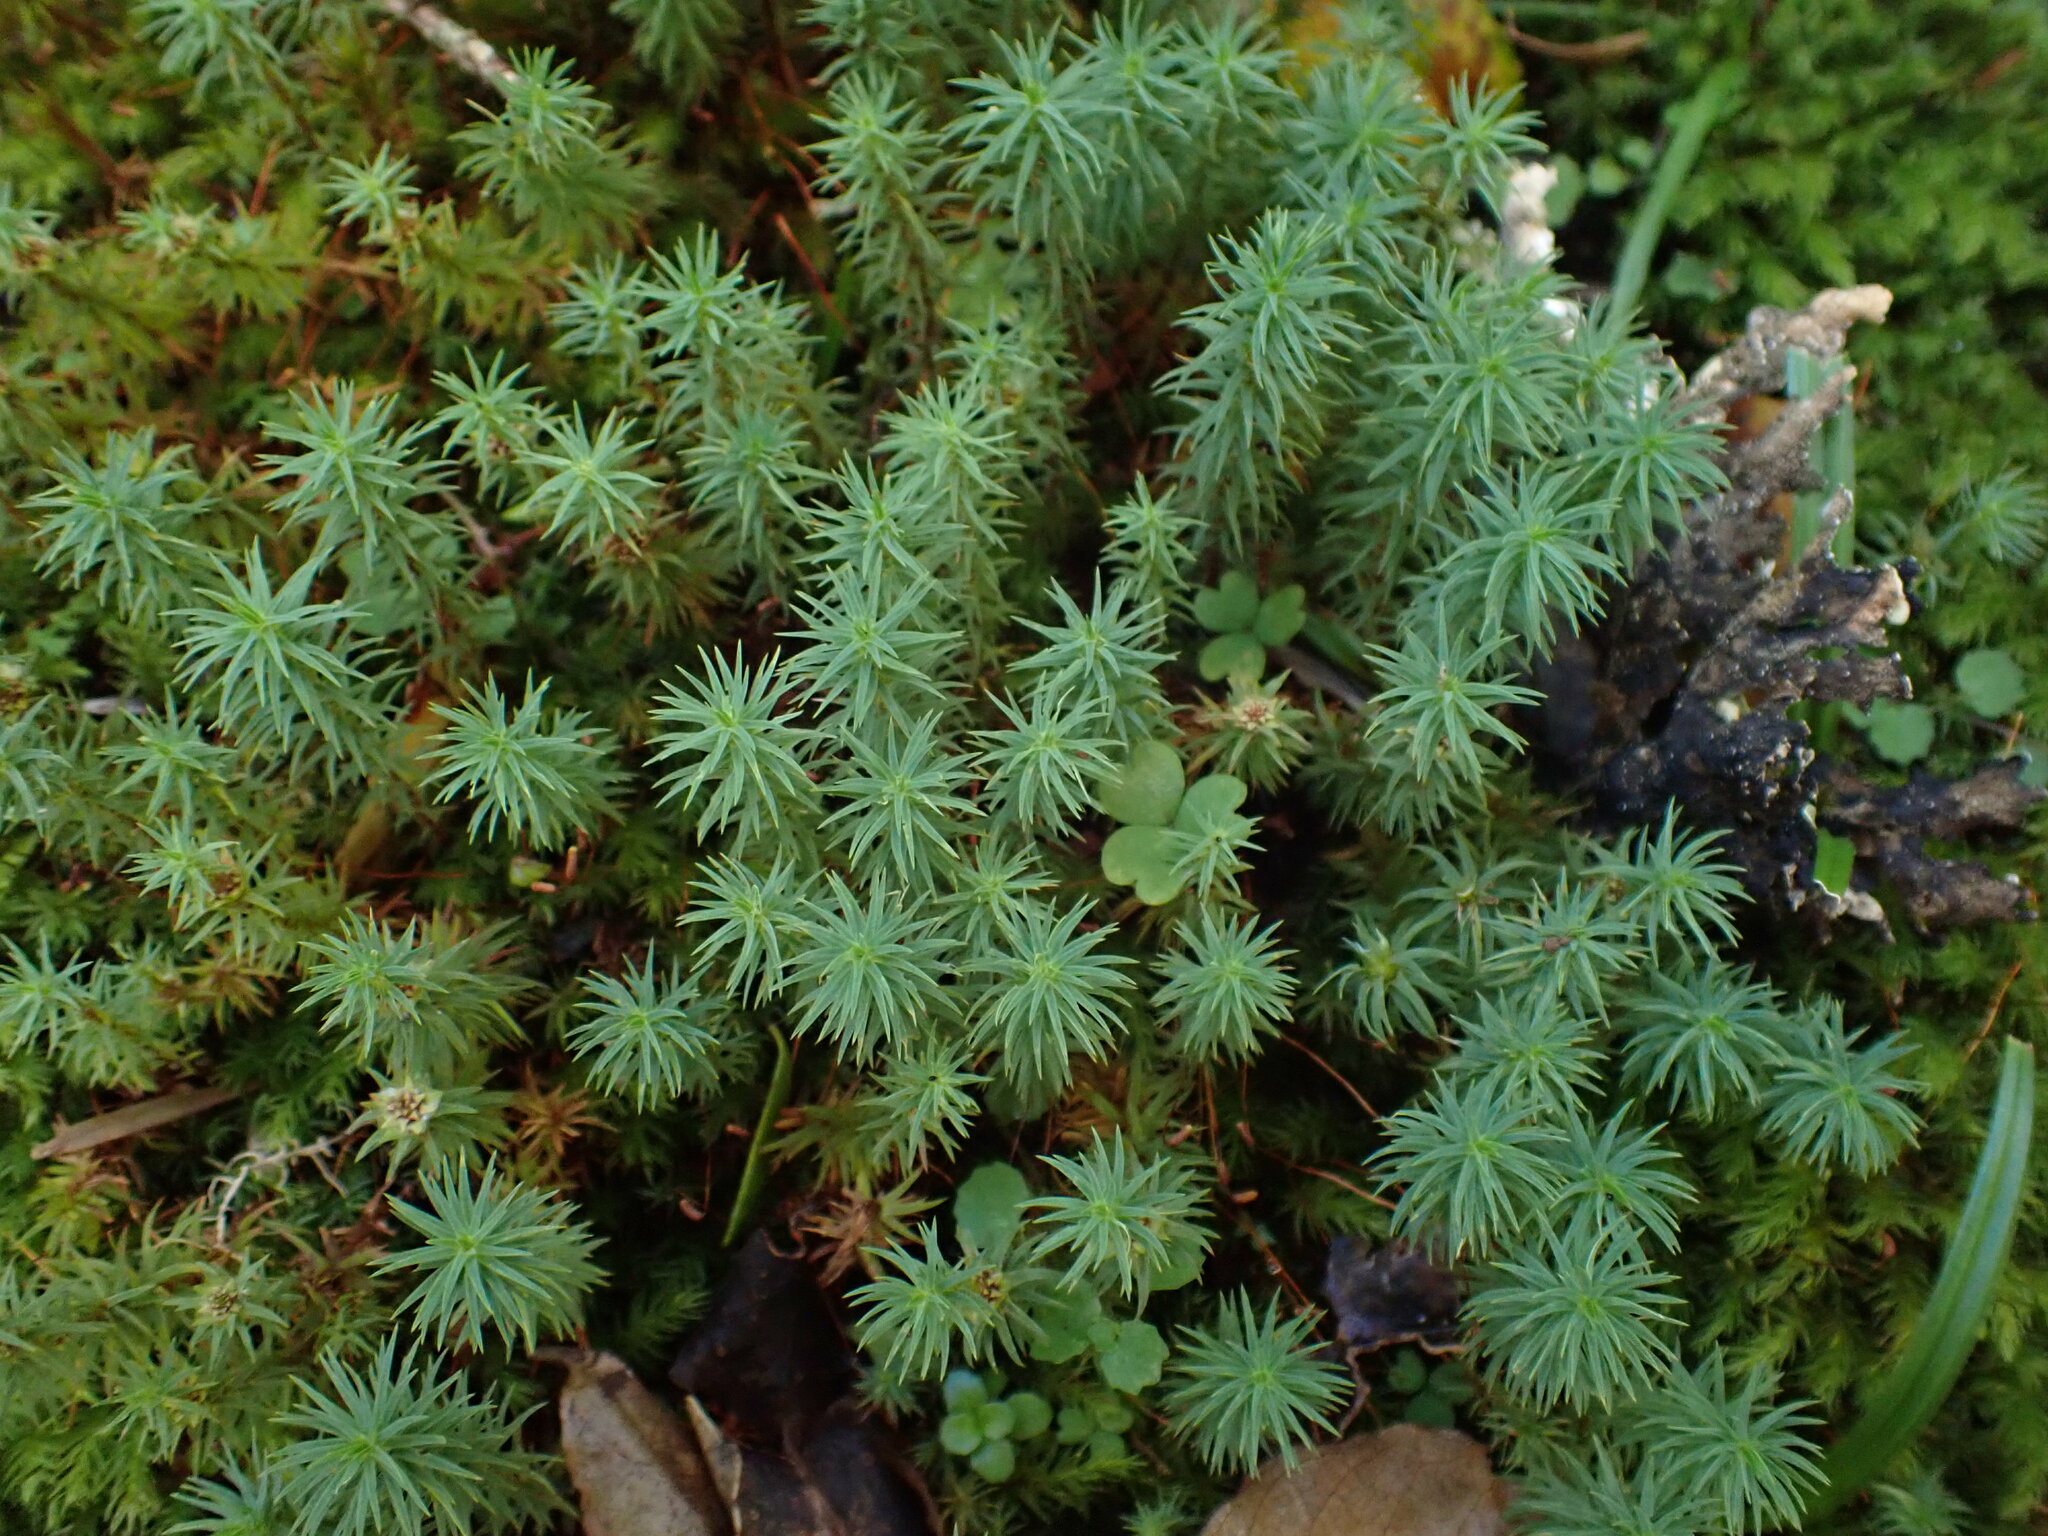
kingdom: Plantae
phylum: Bryophyta
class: Polytrichopsida
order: Polytrichales
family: Polytrichaceae
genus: Polytrichadelphus
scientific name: Polytrichadelphus magellanicus
